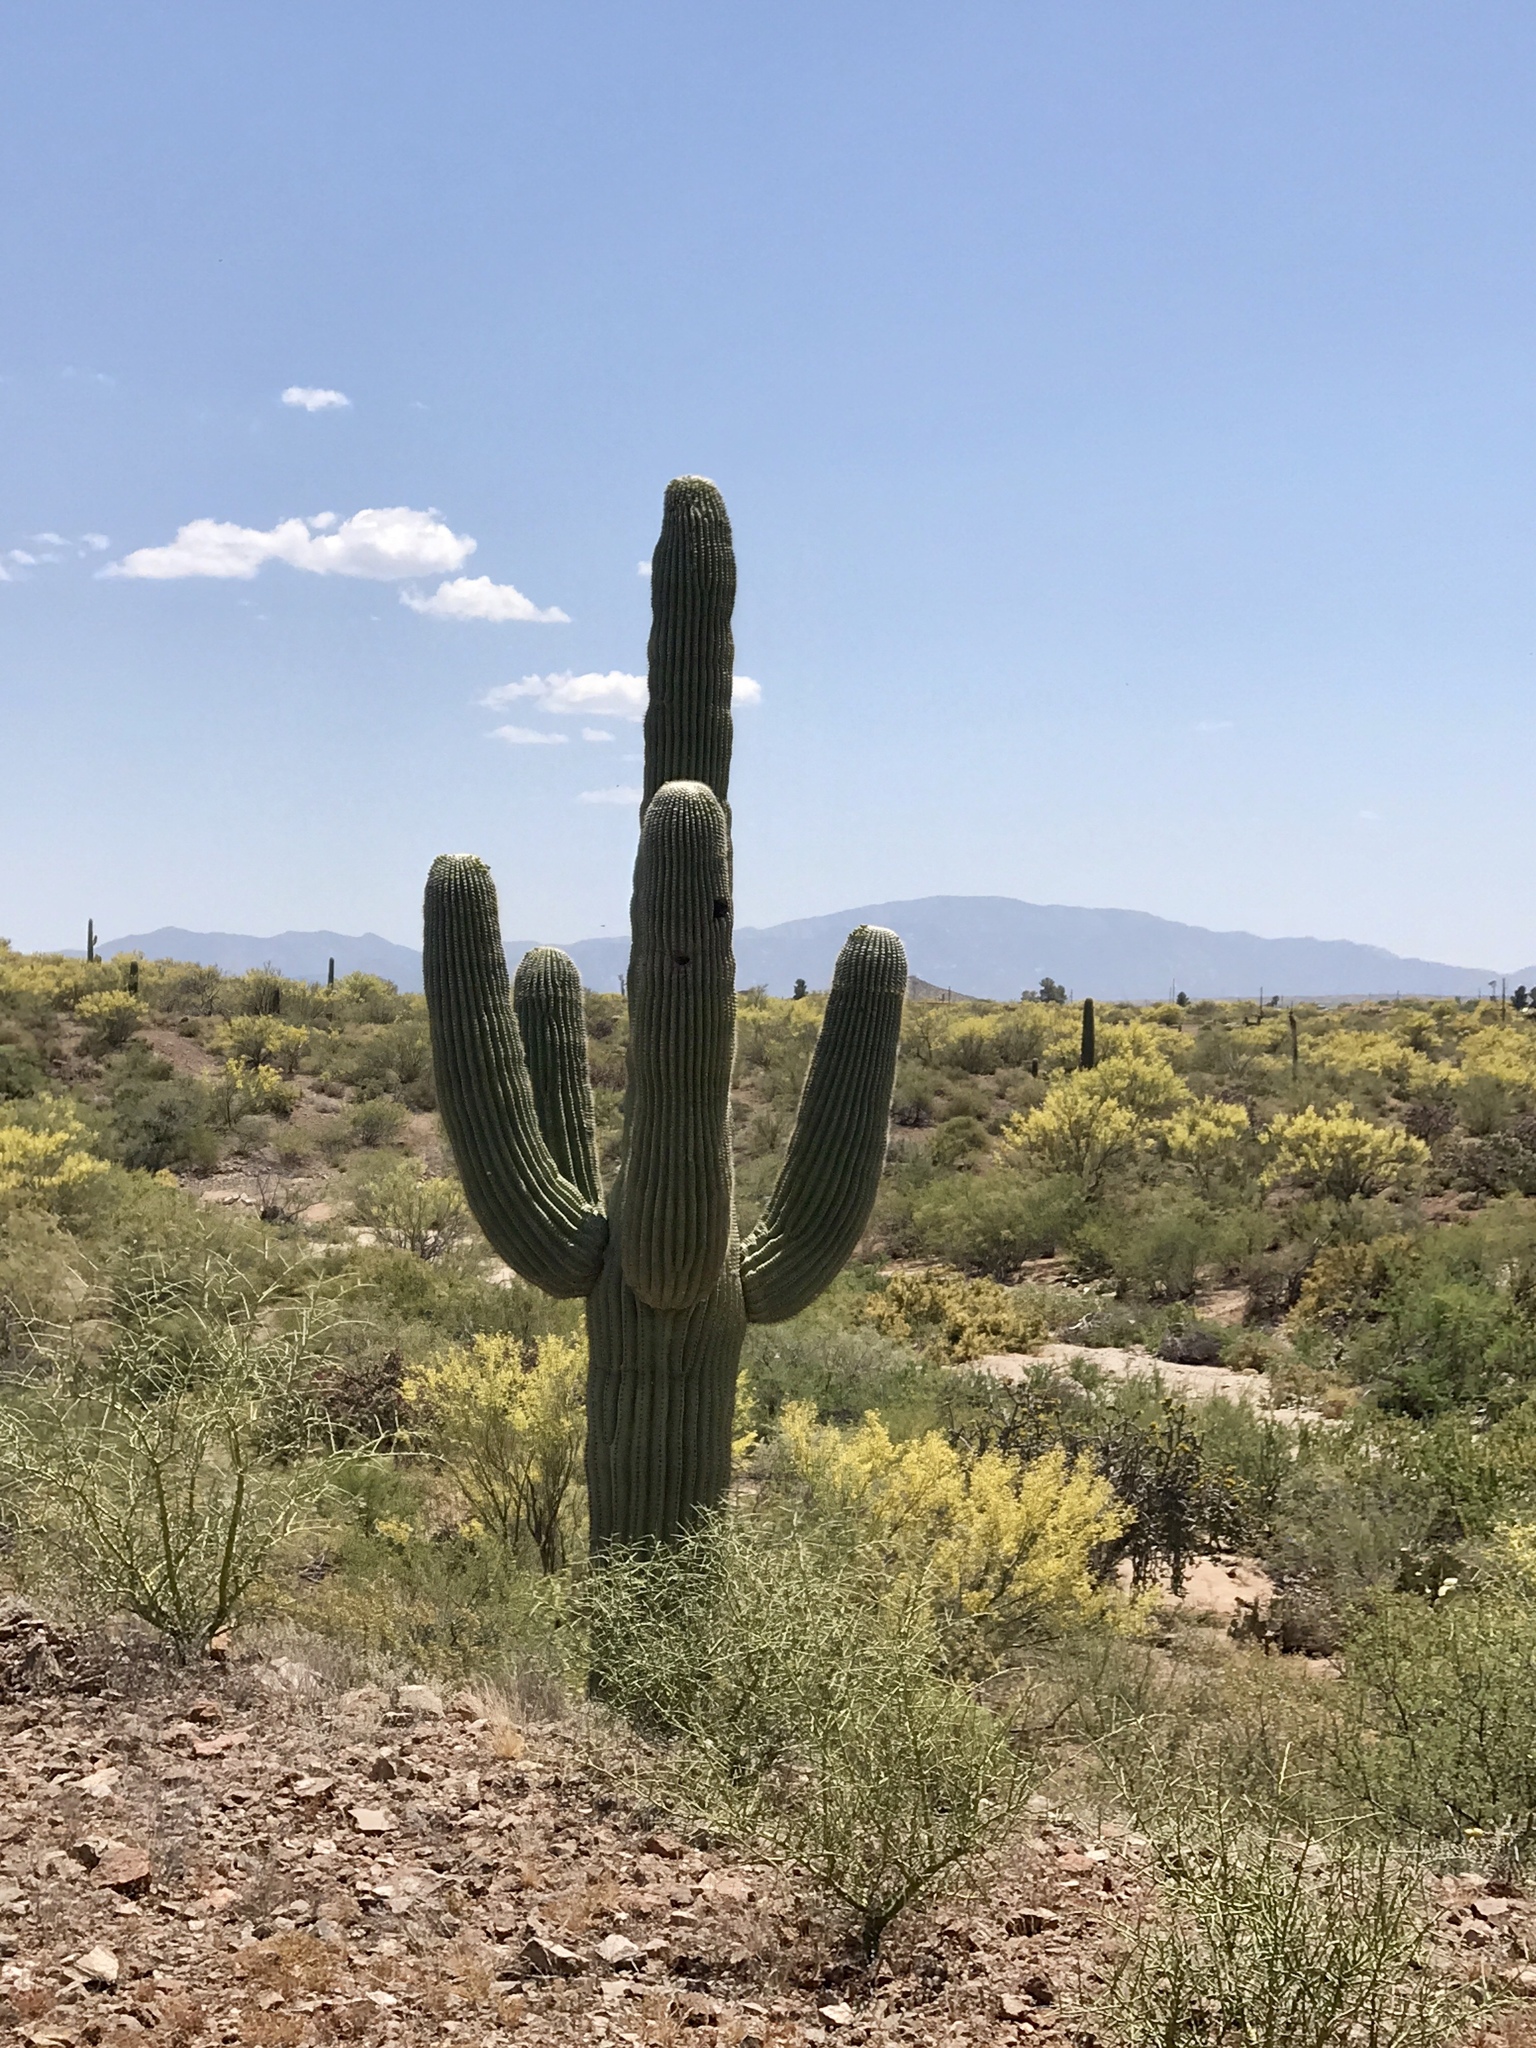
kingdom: Plantae
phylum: Tracheophyta
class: Magnoliopsida
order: Caryophyllales
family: Cactaceae
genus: Carnegiea
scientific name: Carnegiea gigantea
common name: Saguaro
